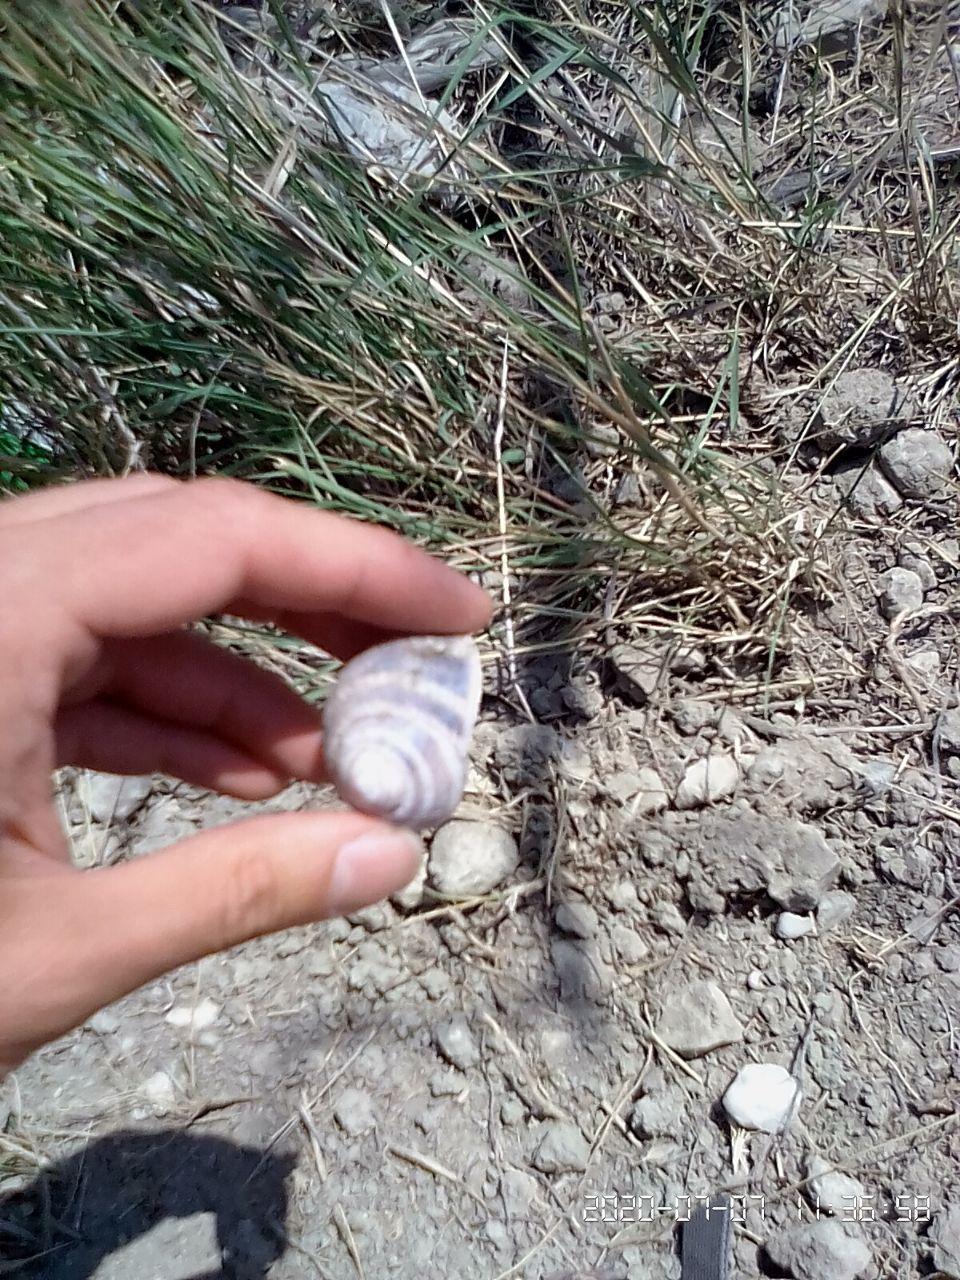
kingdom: Animalia
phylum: Mollusca
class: Gastropoda
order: Stylommatophora
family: Helicidae
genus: Helix
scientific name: Helix albescens
